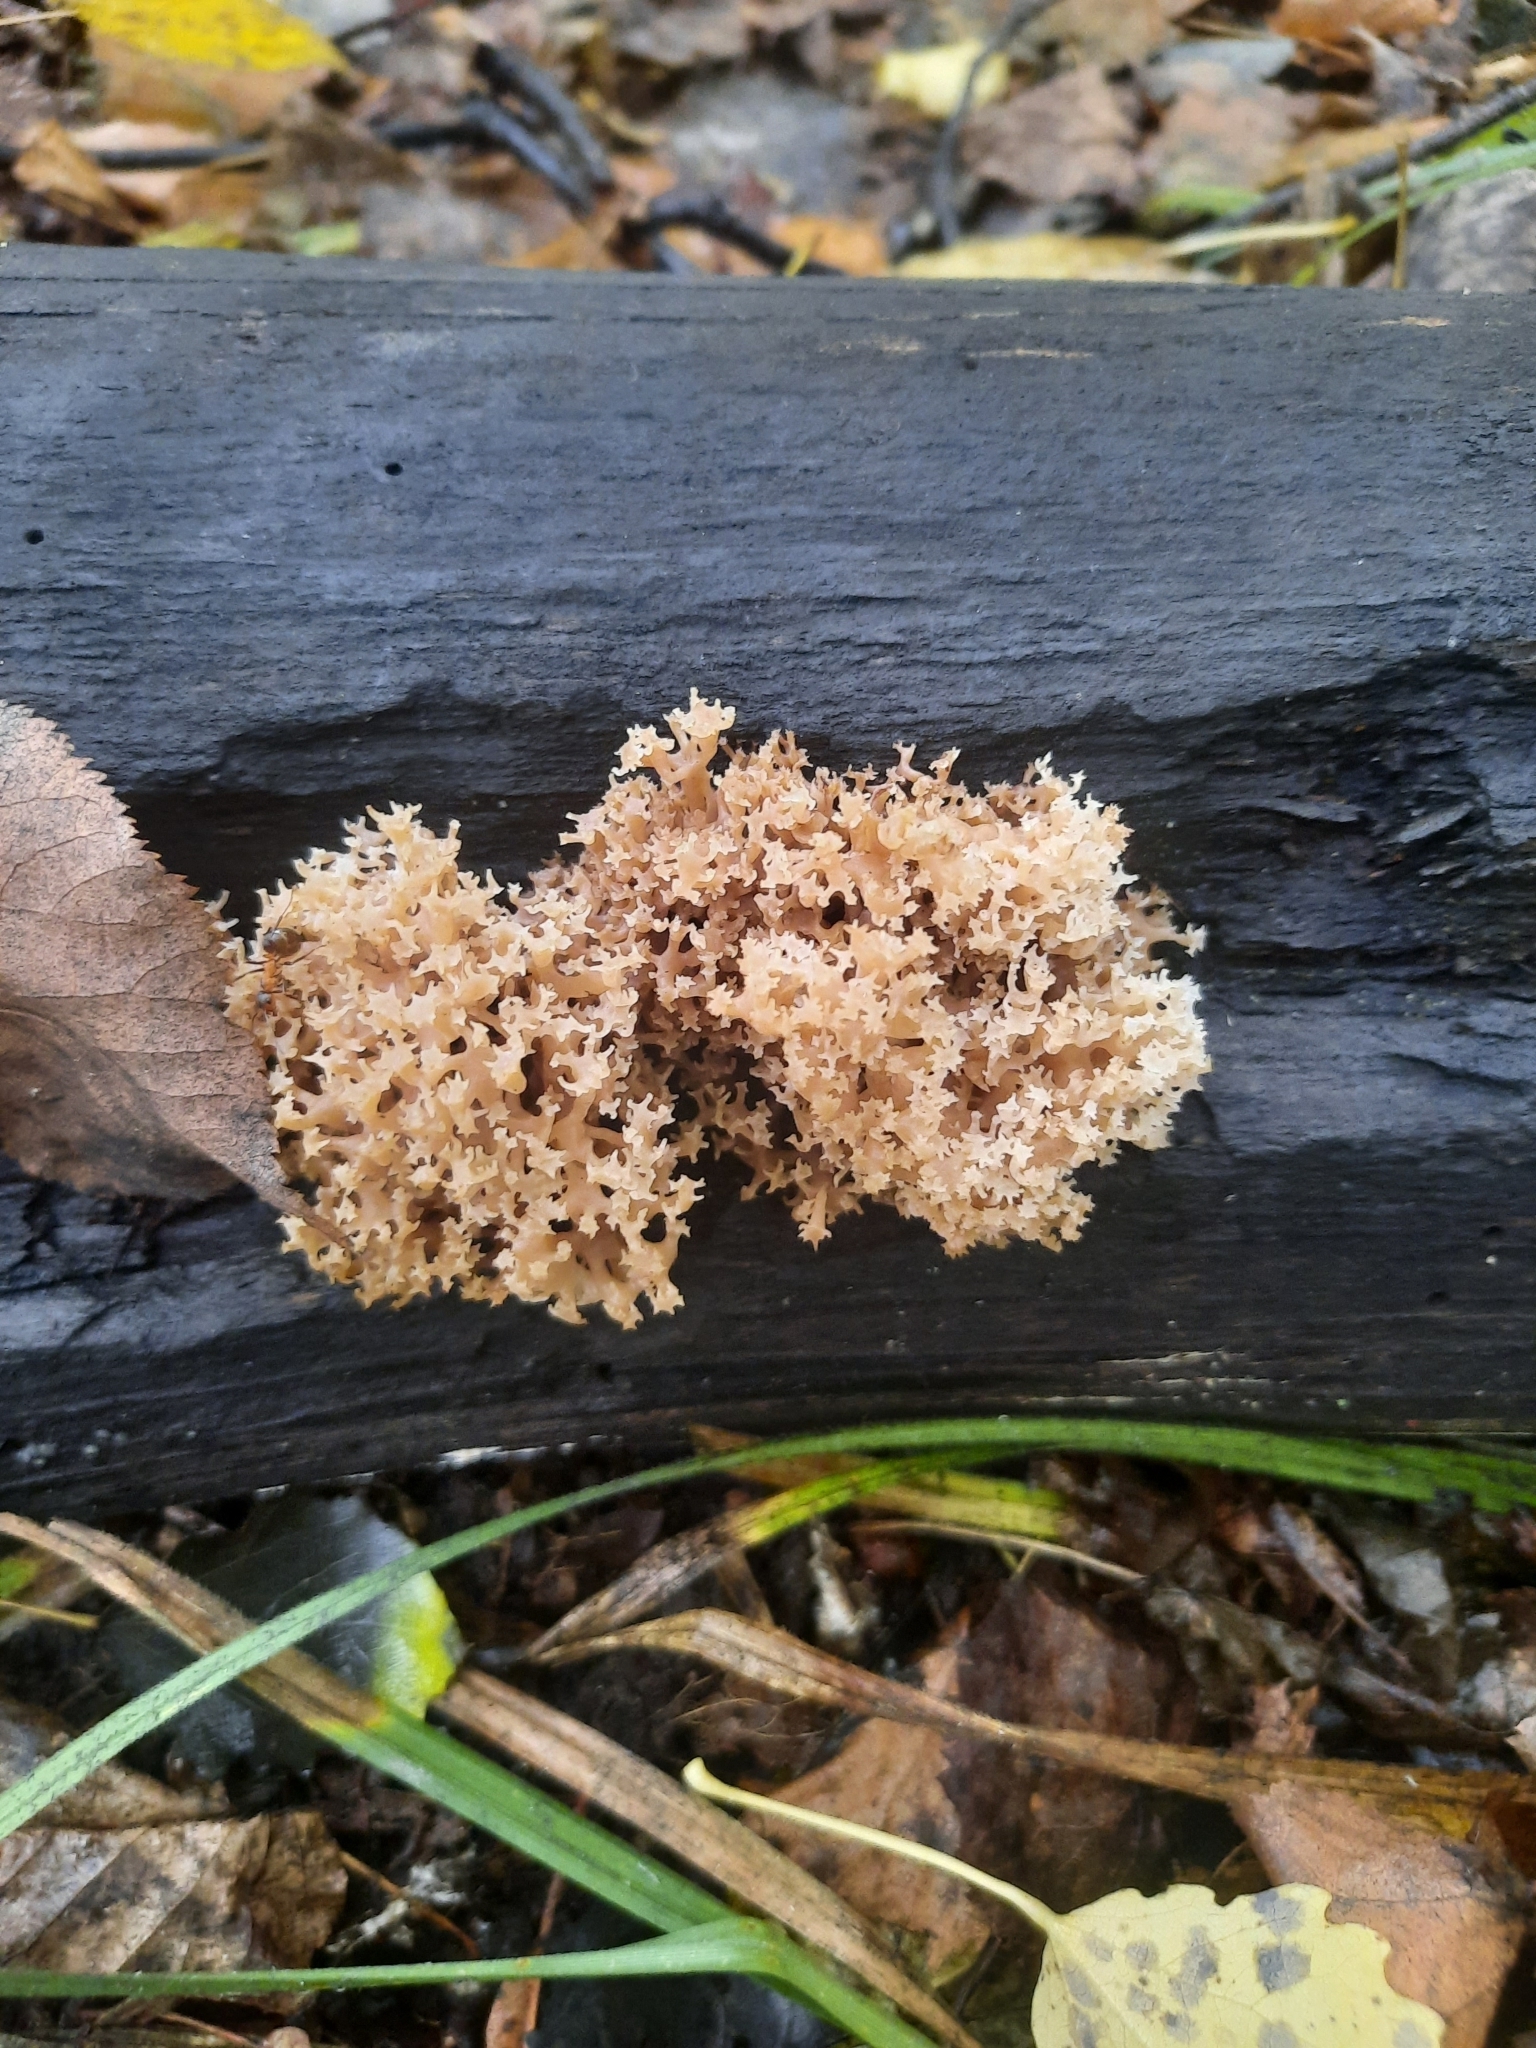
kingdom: Fungi
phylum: Basidiomycota
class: Agaricomycetes
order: Russulales
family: Auriscalpiaceae
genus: Artomyces
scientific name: Artomyces pyxidatus
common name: Crown-tipped coral fungus
